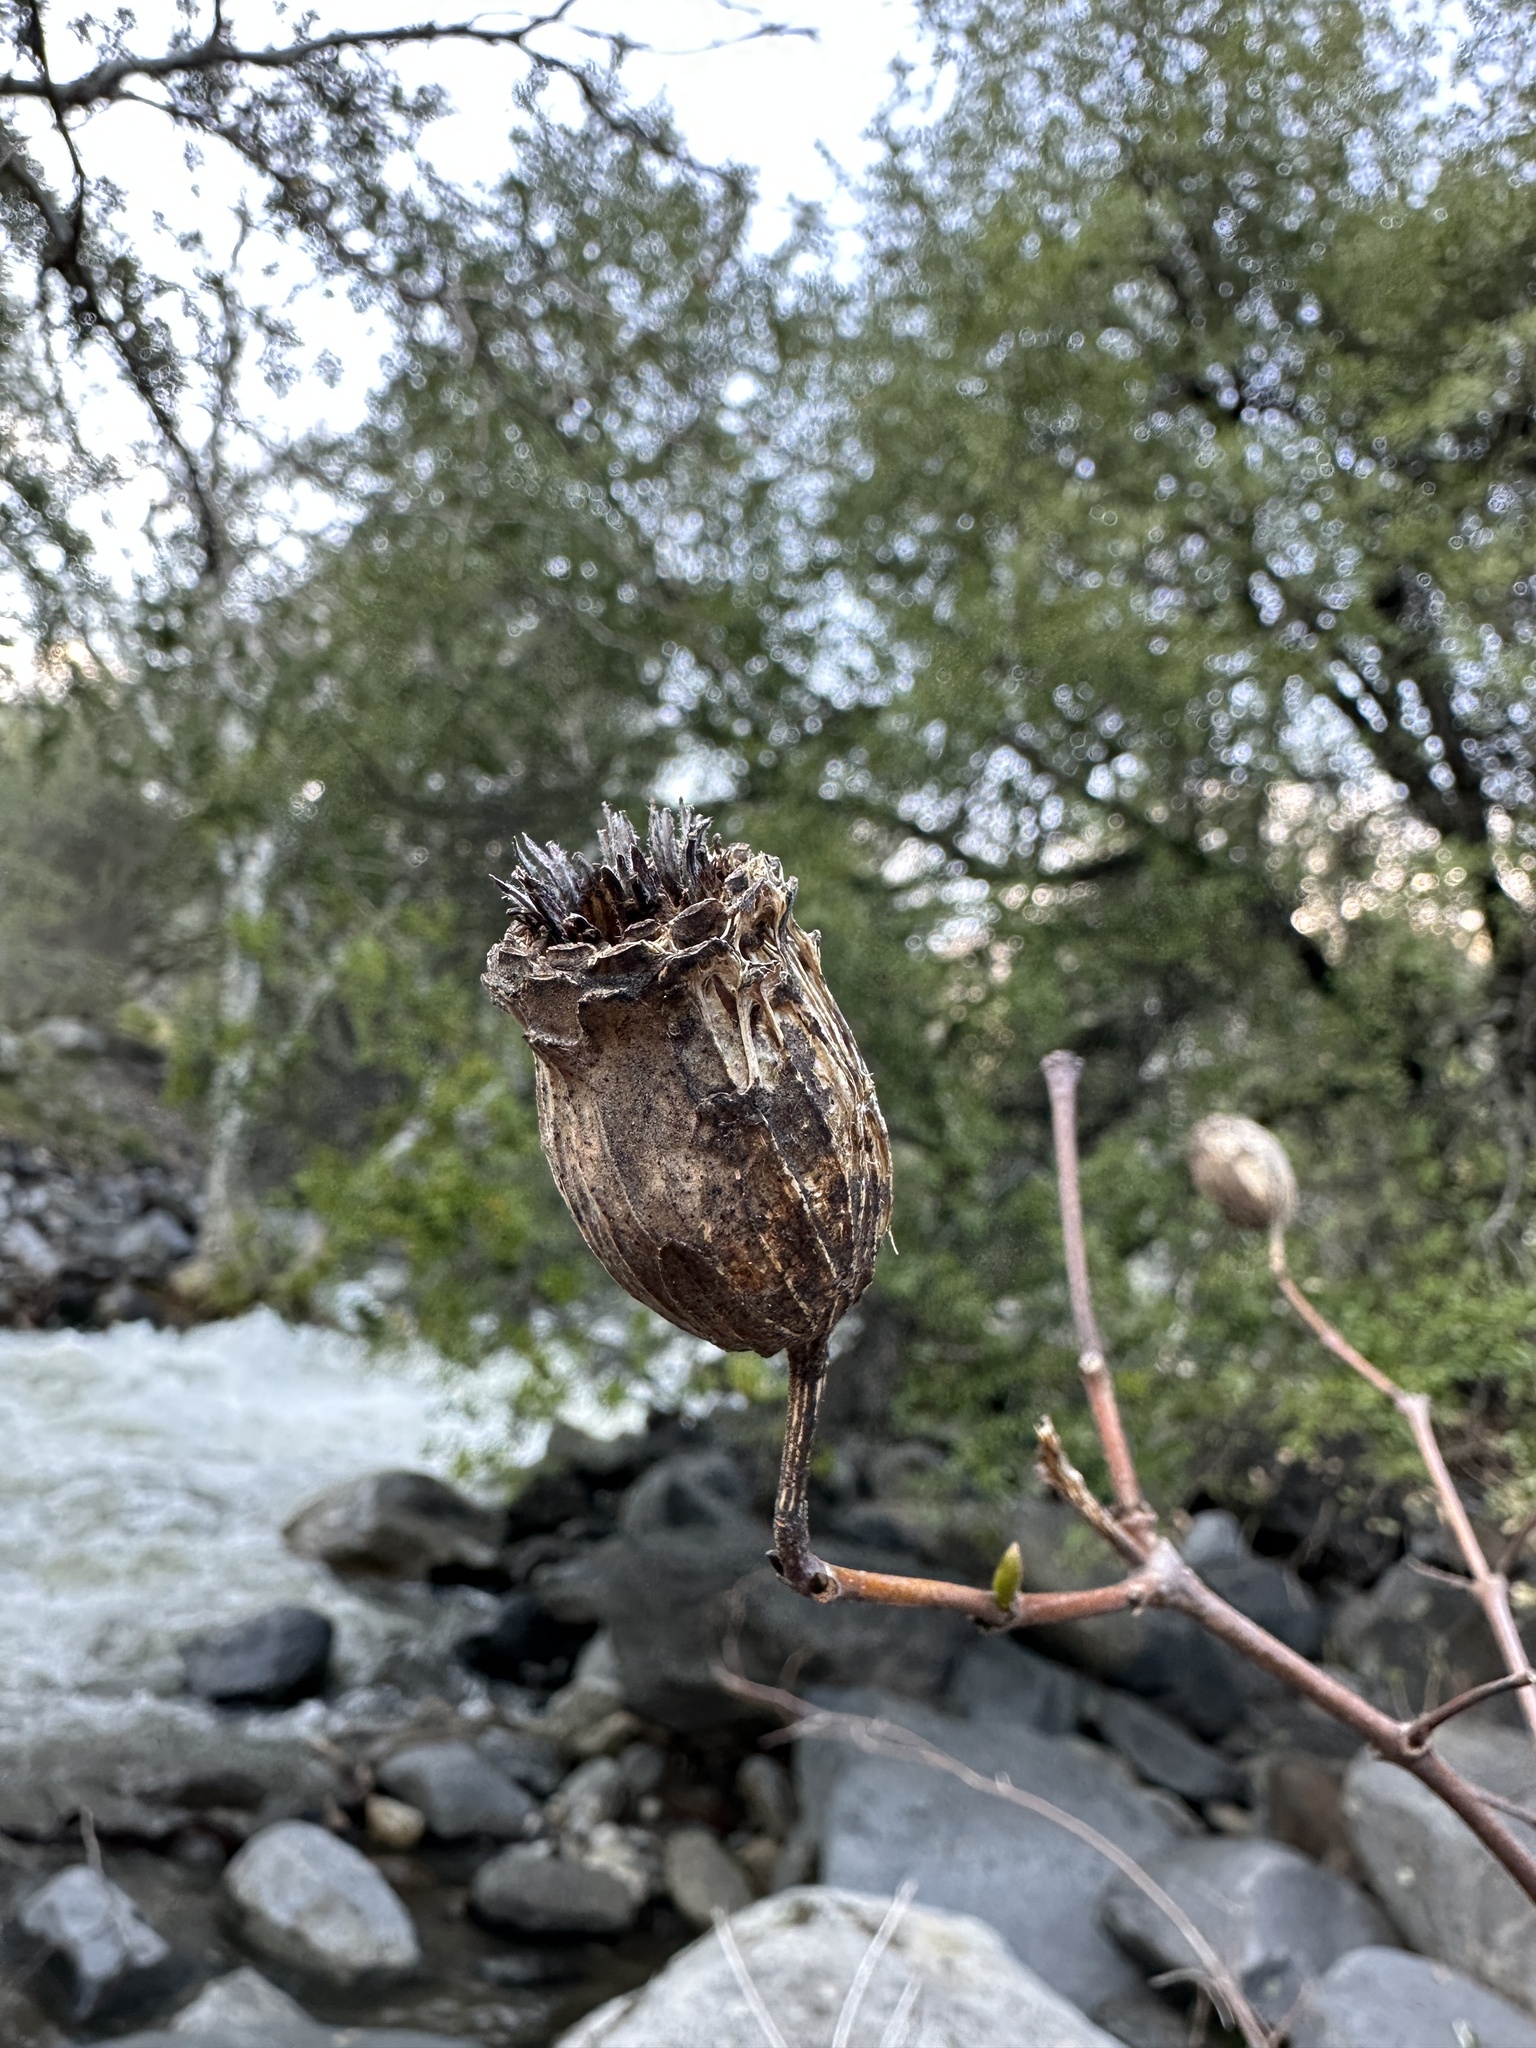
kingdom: Plantae
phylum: Tracheophyta
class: Magnoliopsida
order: Laurales
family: Calycanthaceae
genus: Calycanthus
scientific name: Calycanthus occidentalis
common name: California spicebush
